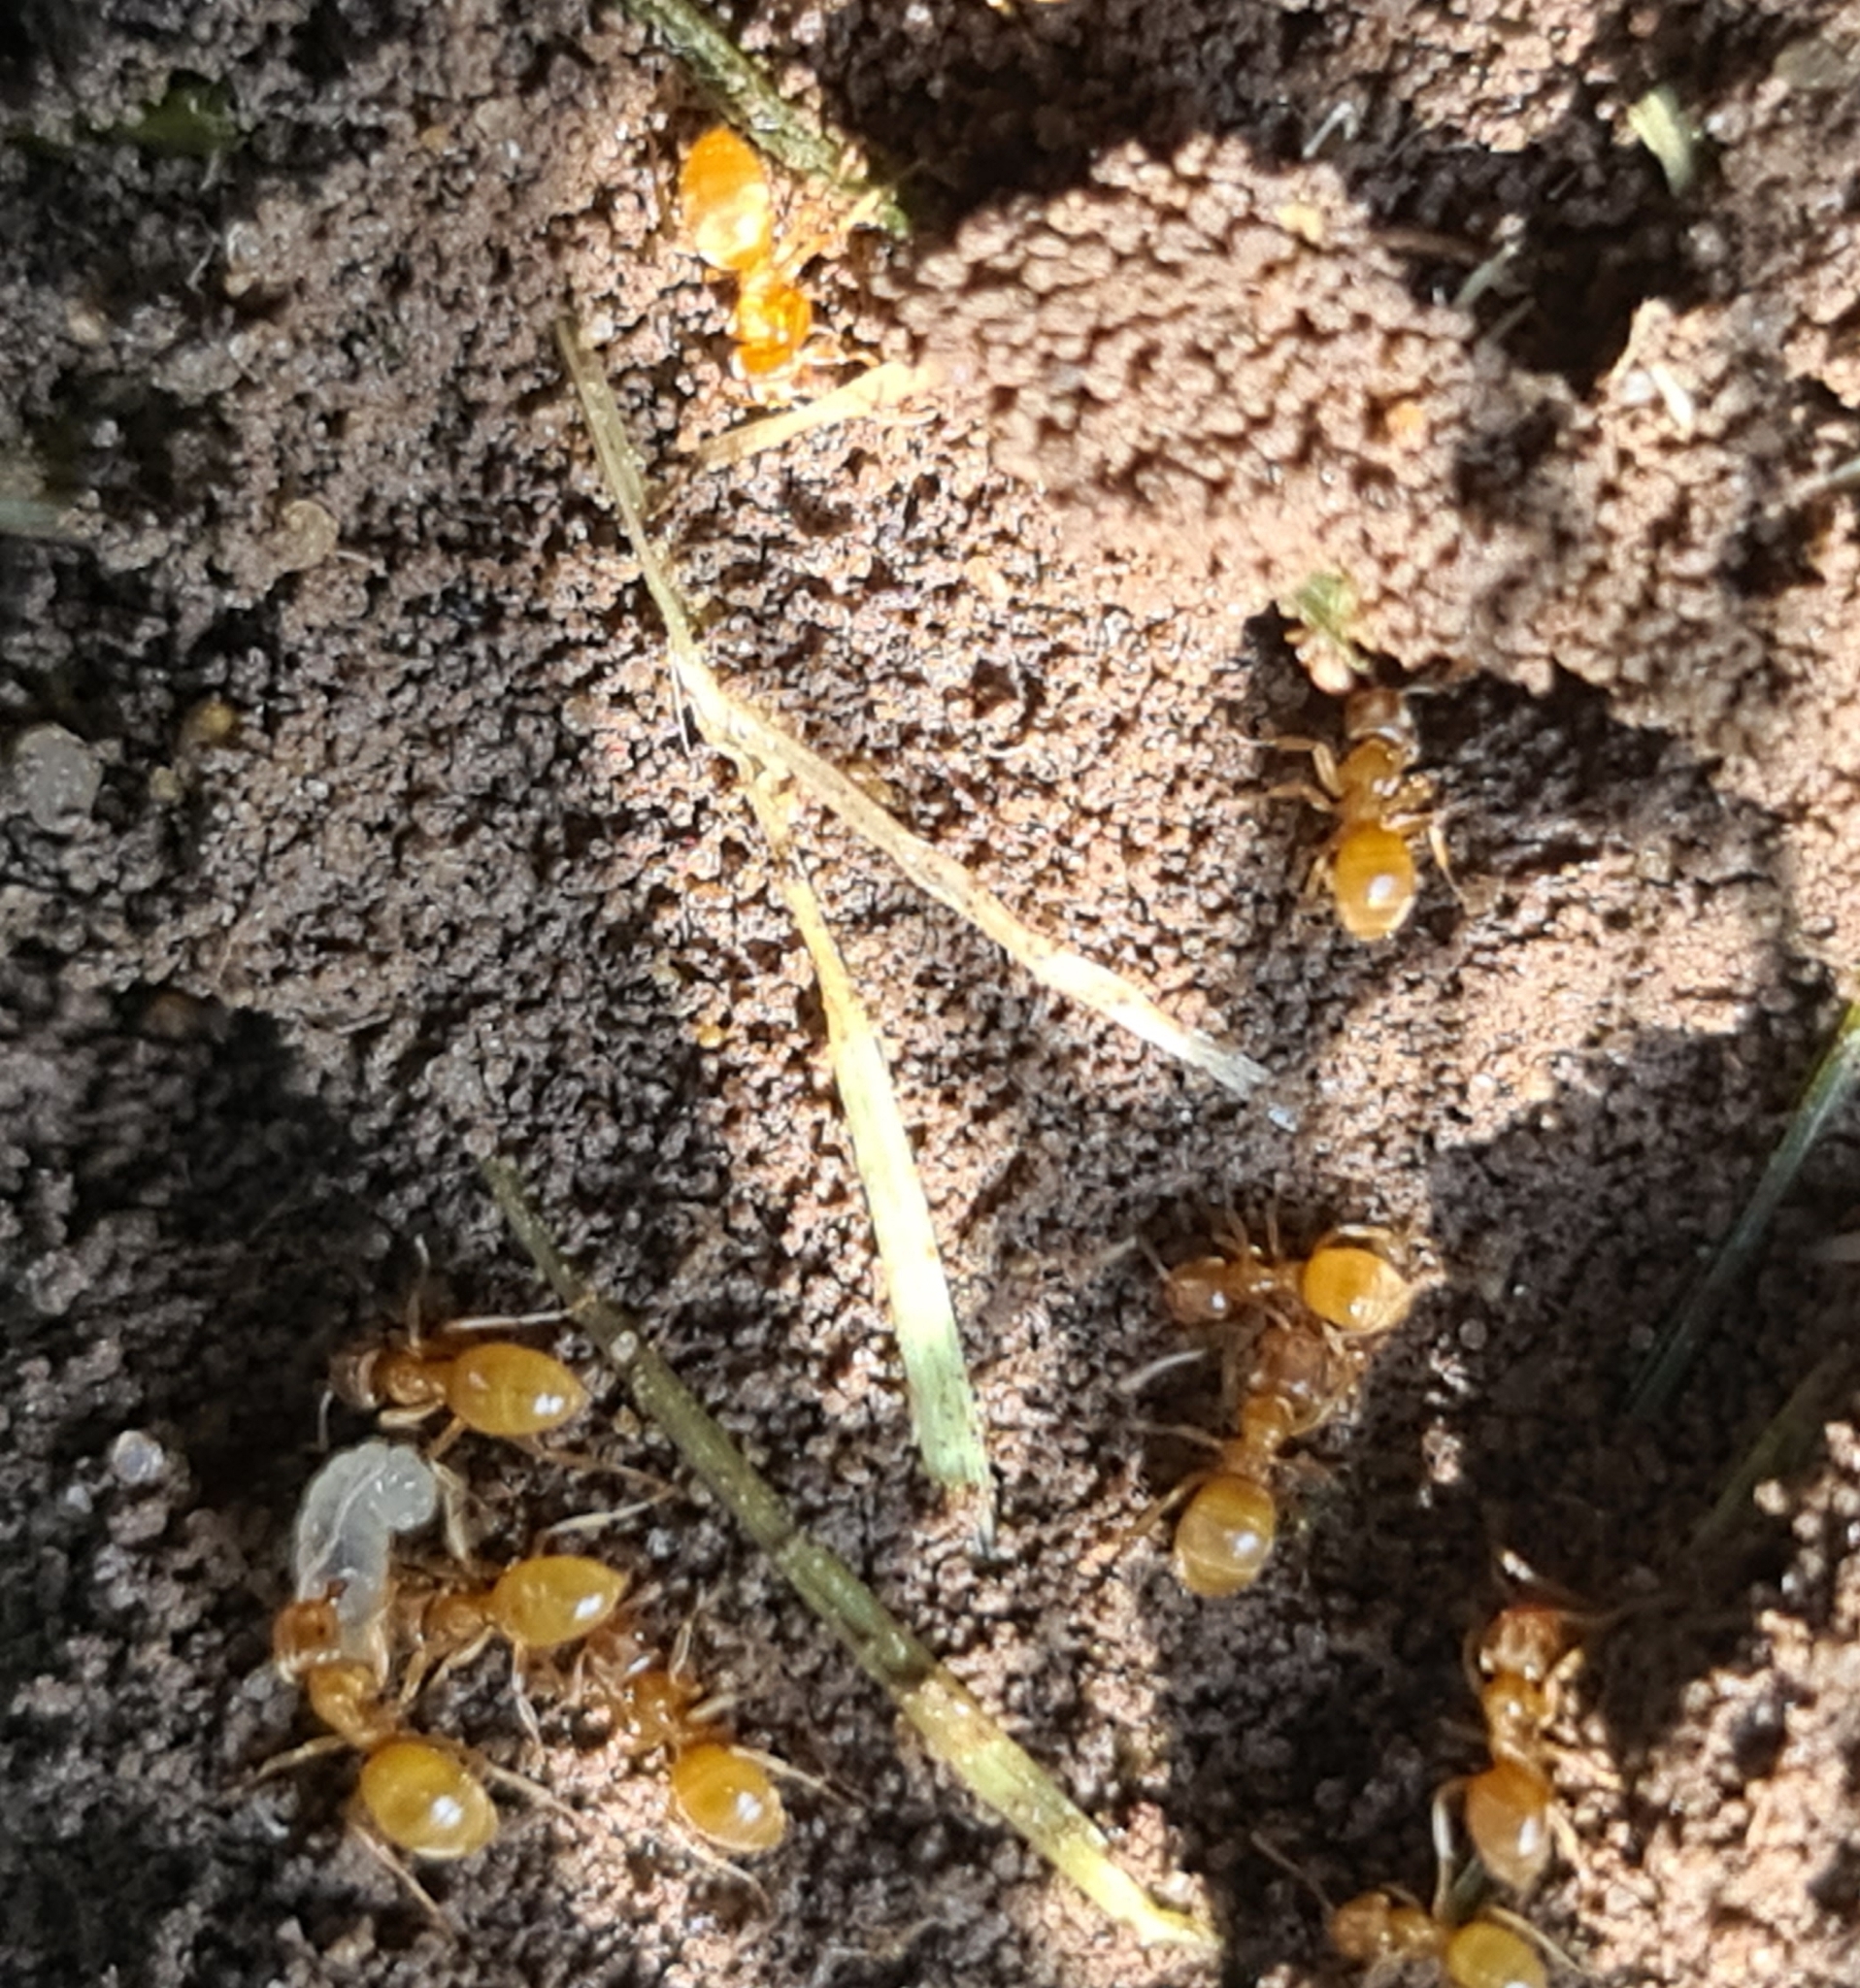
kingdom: Animalia
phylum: Arthropoda
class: Insecta
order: Hymenoptera
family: Formicidae
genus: Lasius
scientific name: Lasius flavus
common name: Blond field ant
